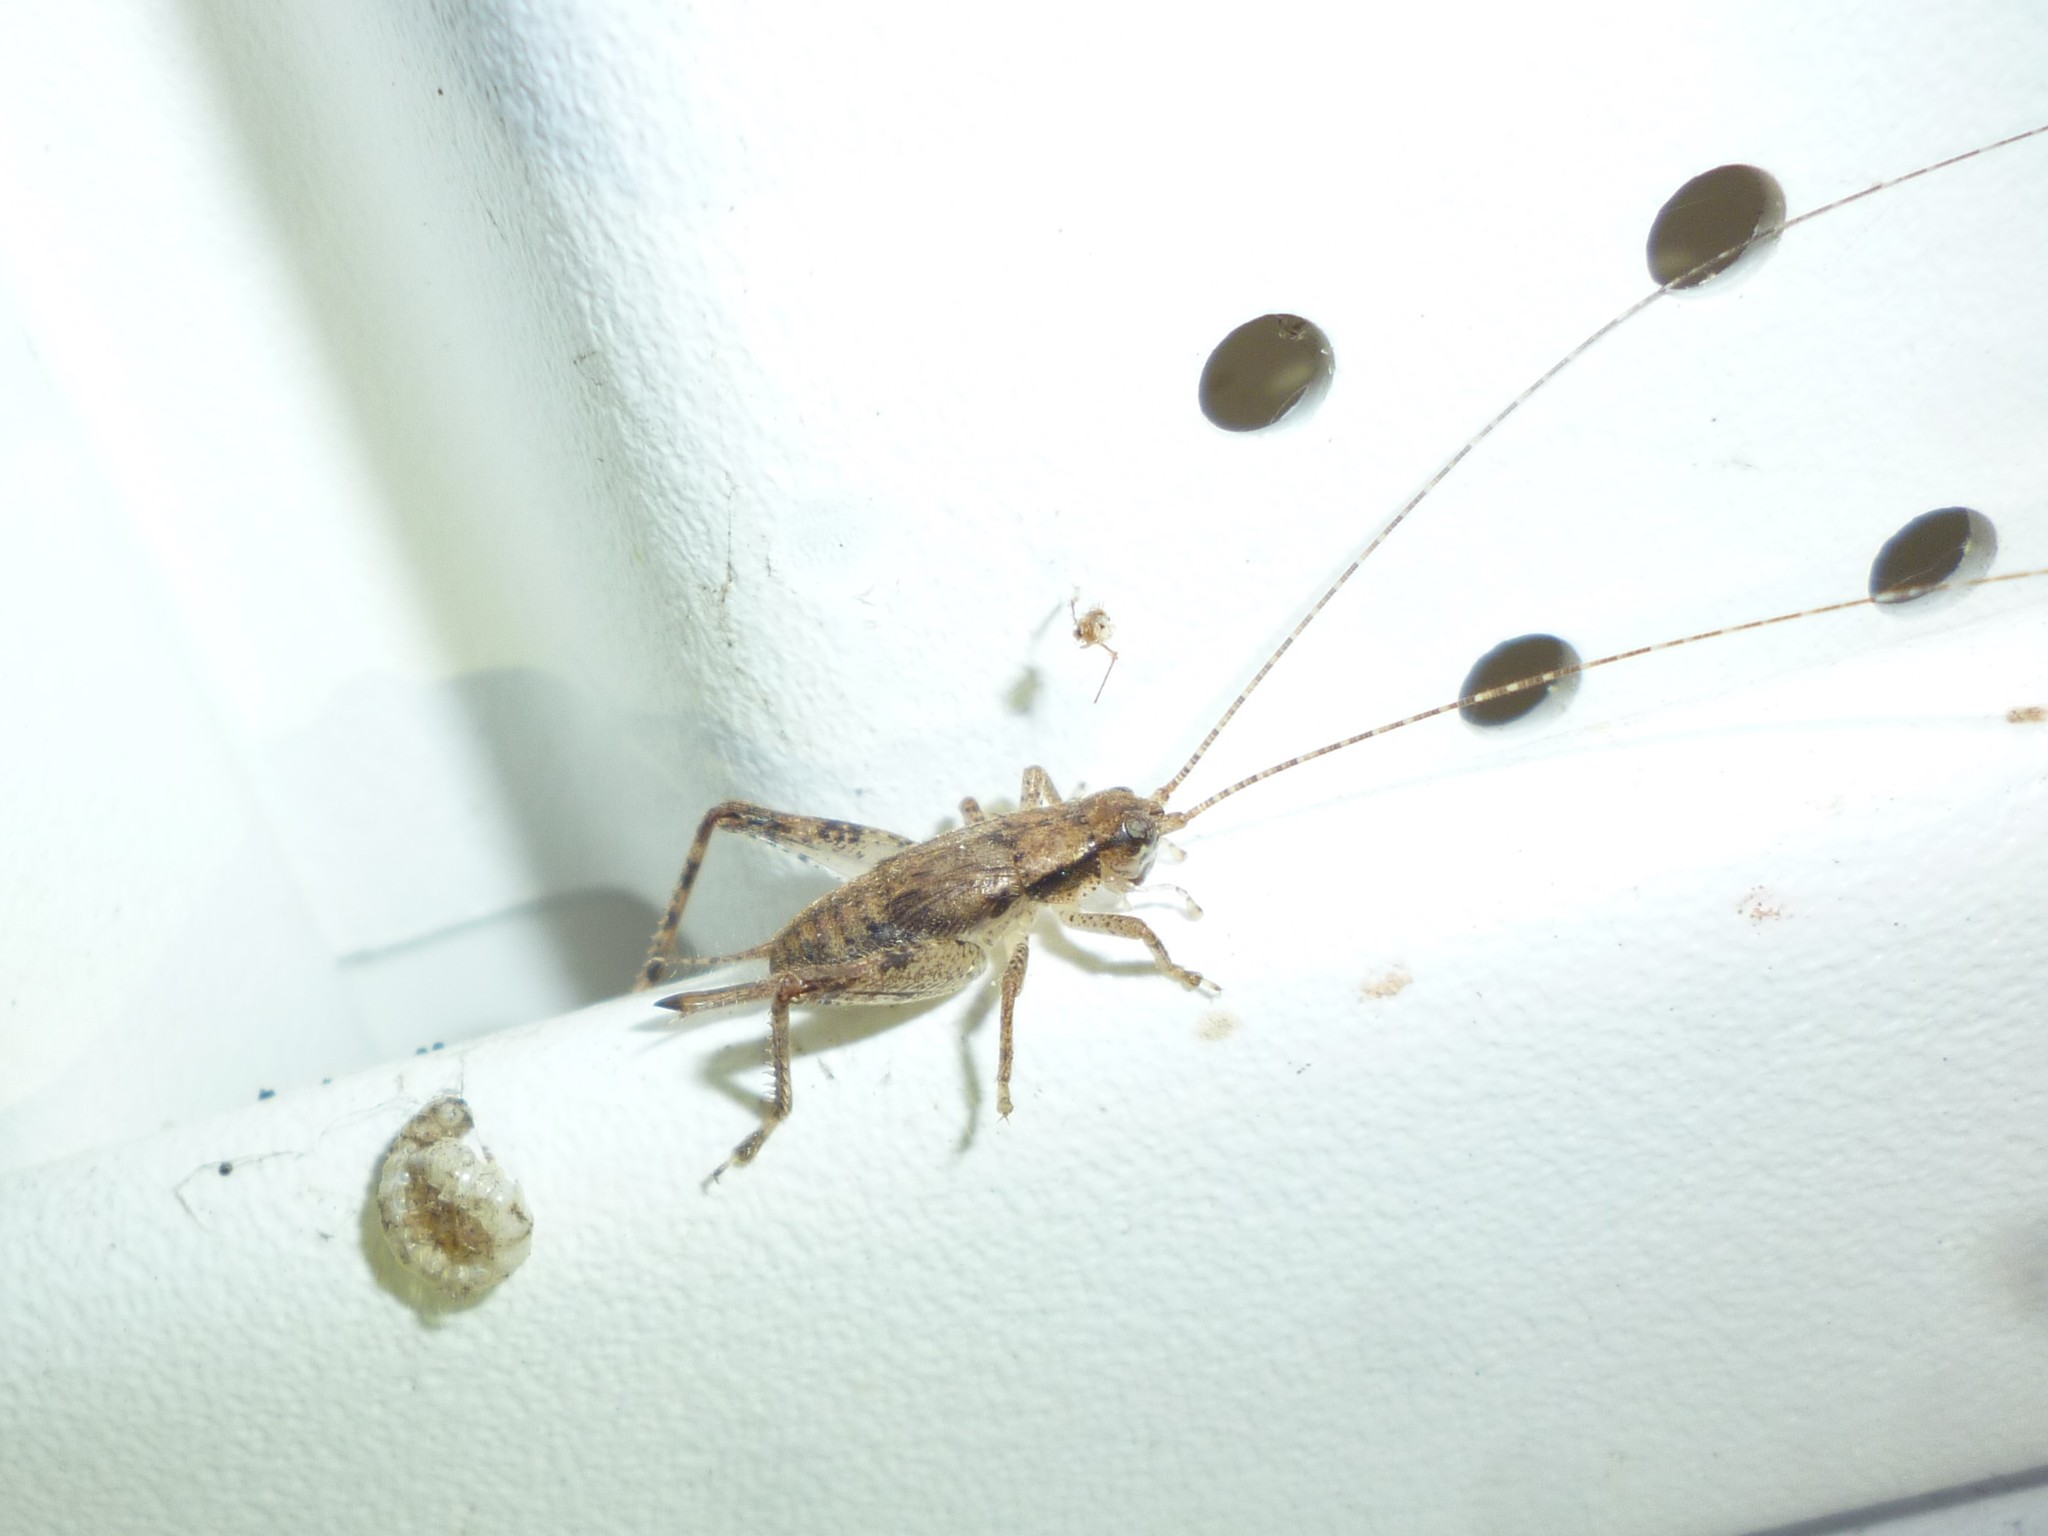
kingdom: Animalia
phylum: Arthropoda
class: Insecta
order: Orthoptera
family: Gryllidae
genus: Hapithus
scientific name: Hapithus saltator
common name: Jumping bush cricket
